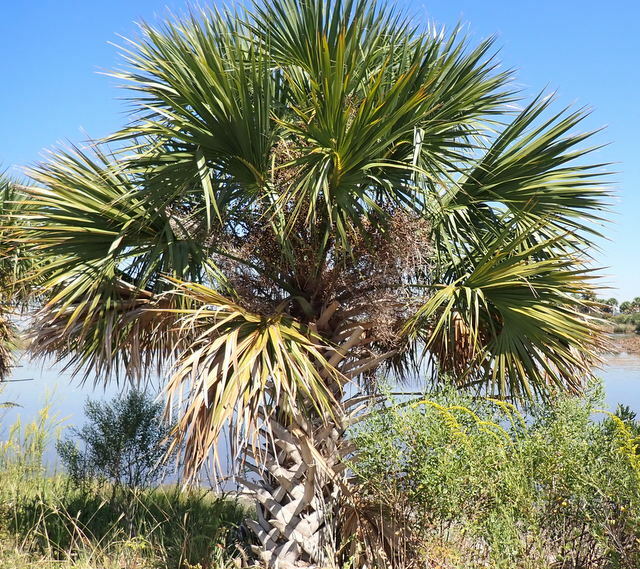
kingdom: Plantae
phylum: Tracheophyta
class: Liliopsida
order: Arecales
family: Arecaceae
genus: Sabal
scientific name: Sabal palmetto
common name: Blue palmetto
